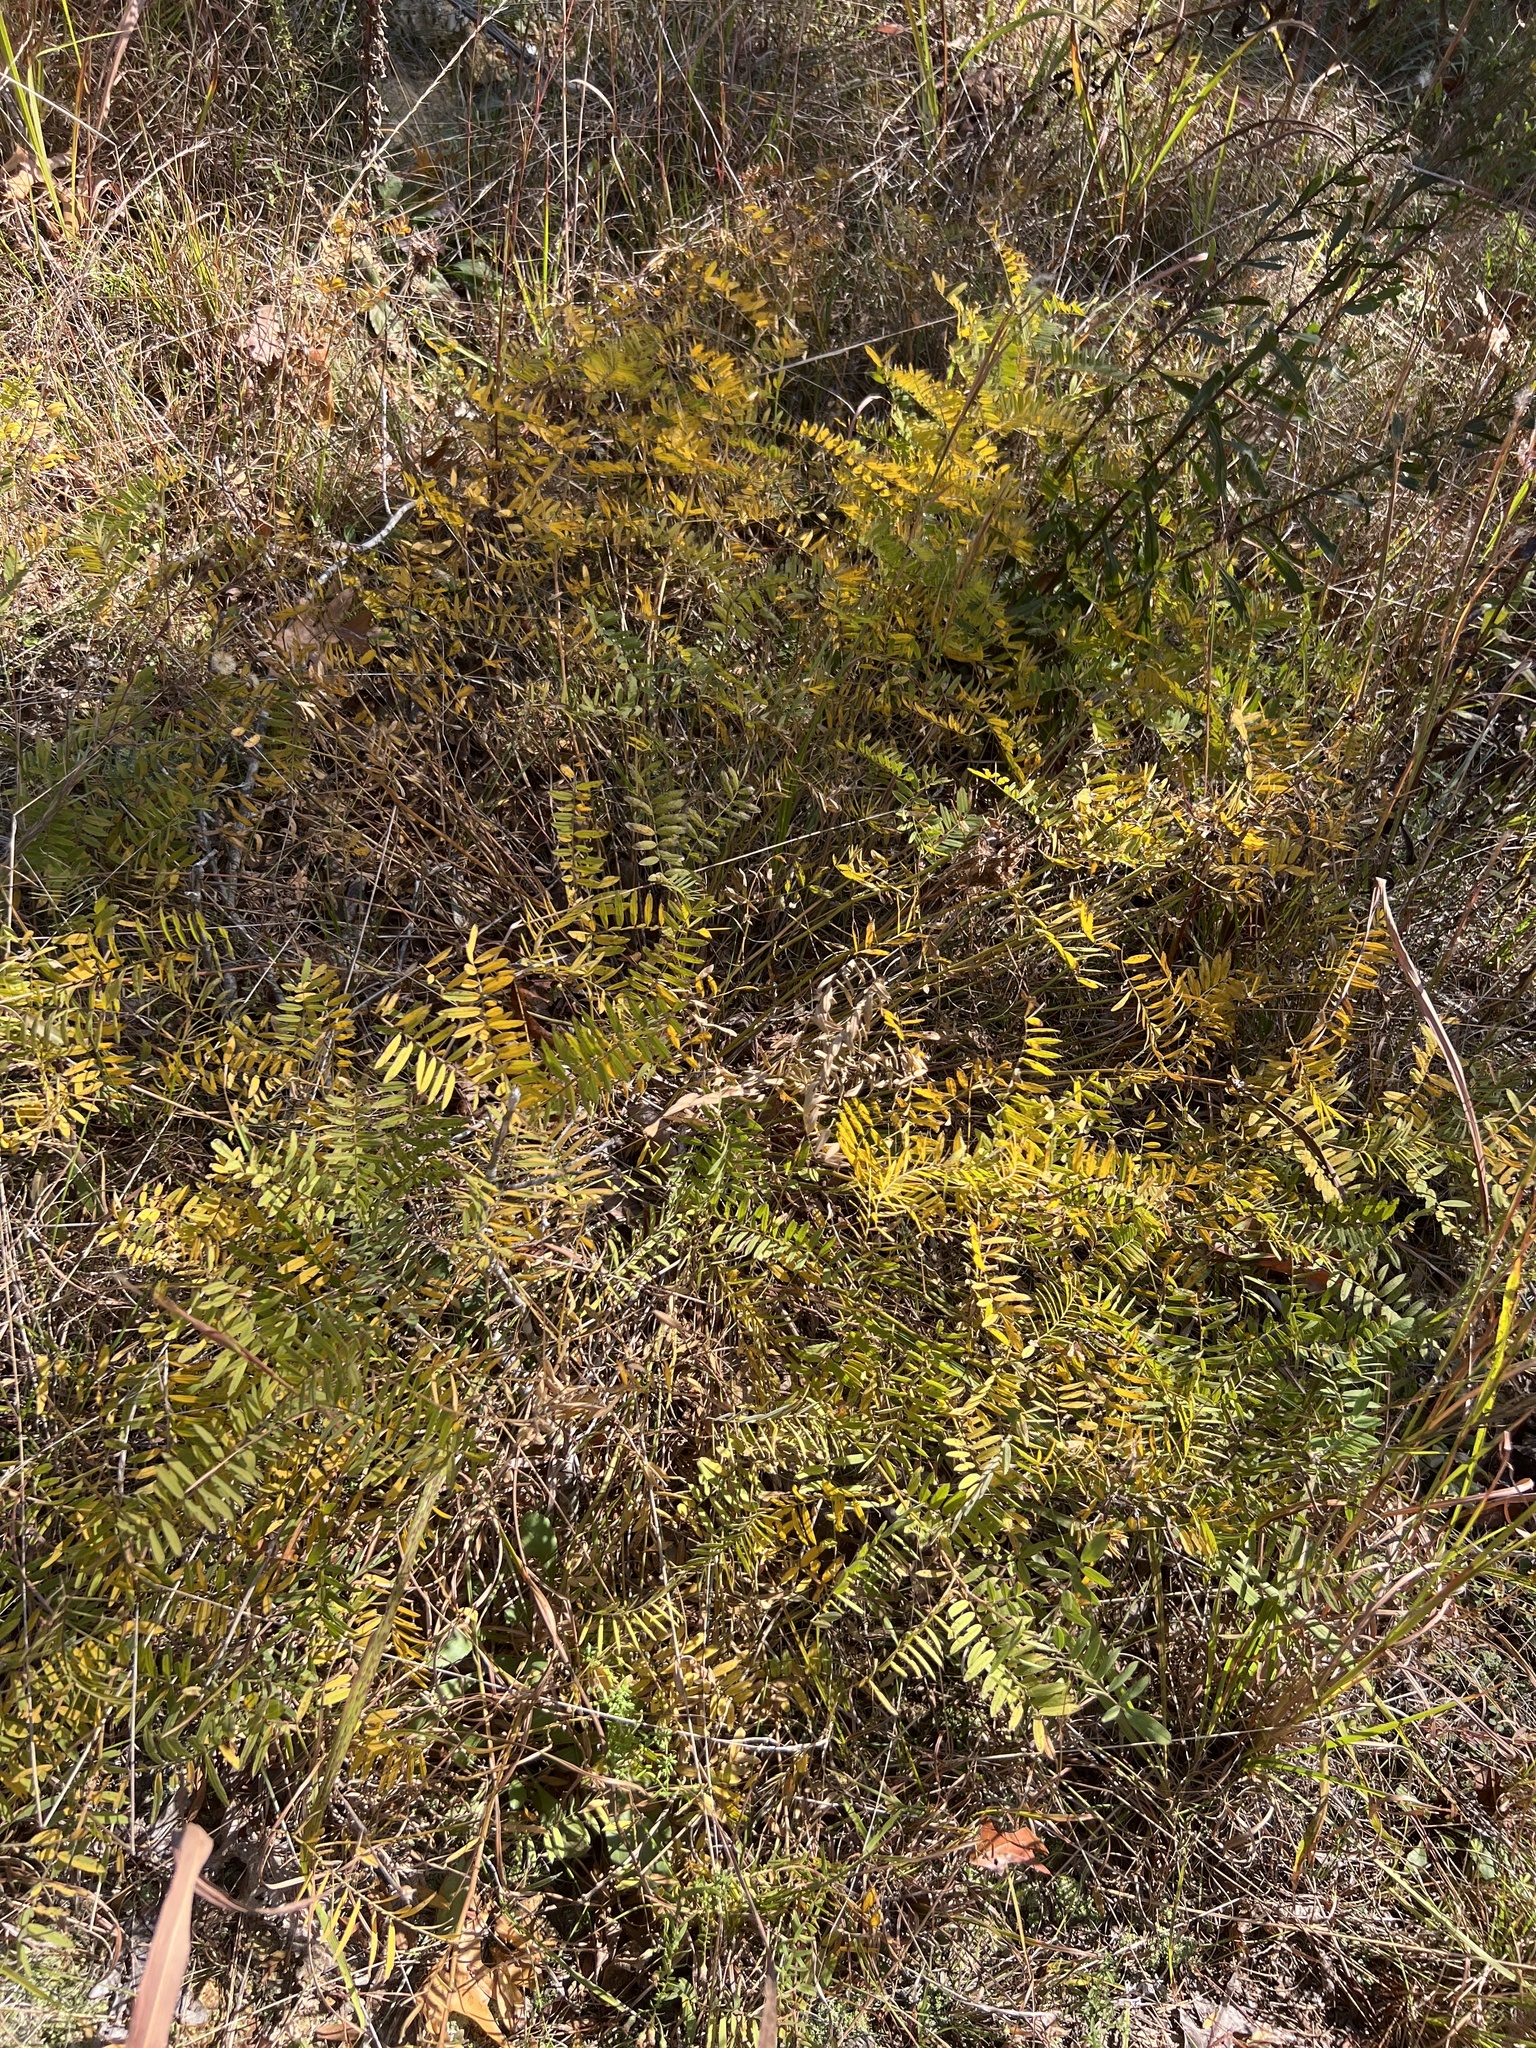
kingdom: Plantae
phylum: Tracheophyta
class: Magnoliopsida
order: Fabales
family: Fabaceae
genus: Tephrosia
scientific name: Tephrosia virginiana
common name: Rabbit-pea
